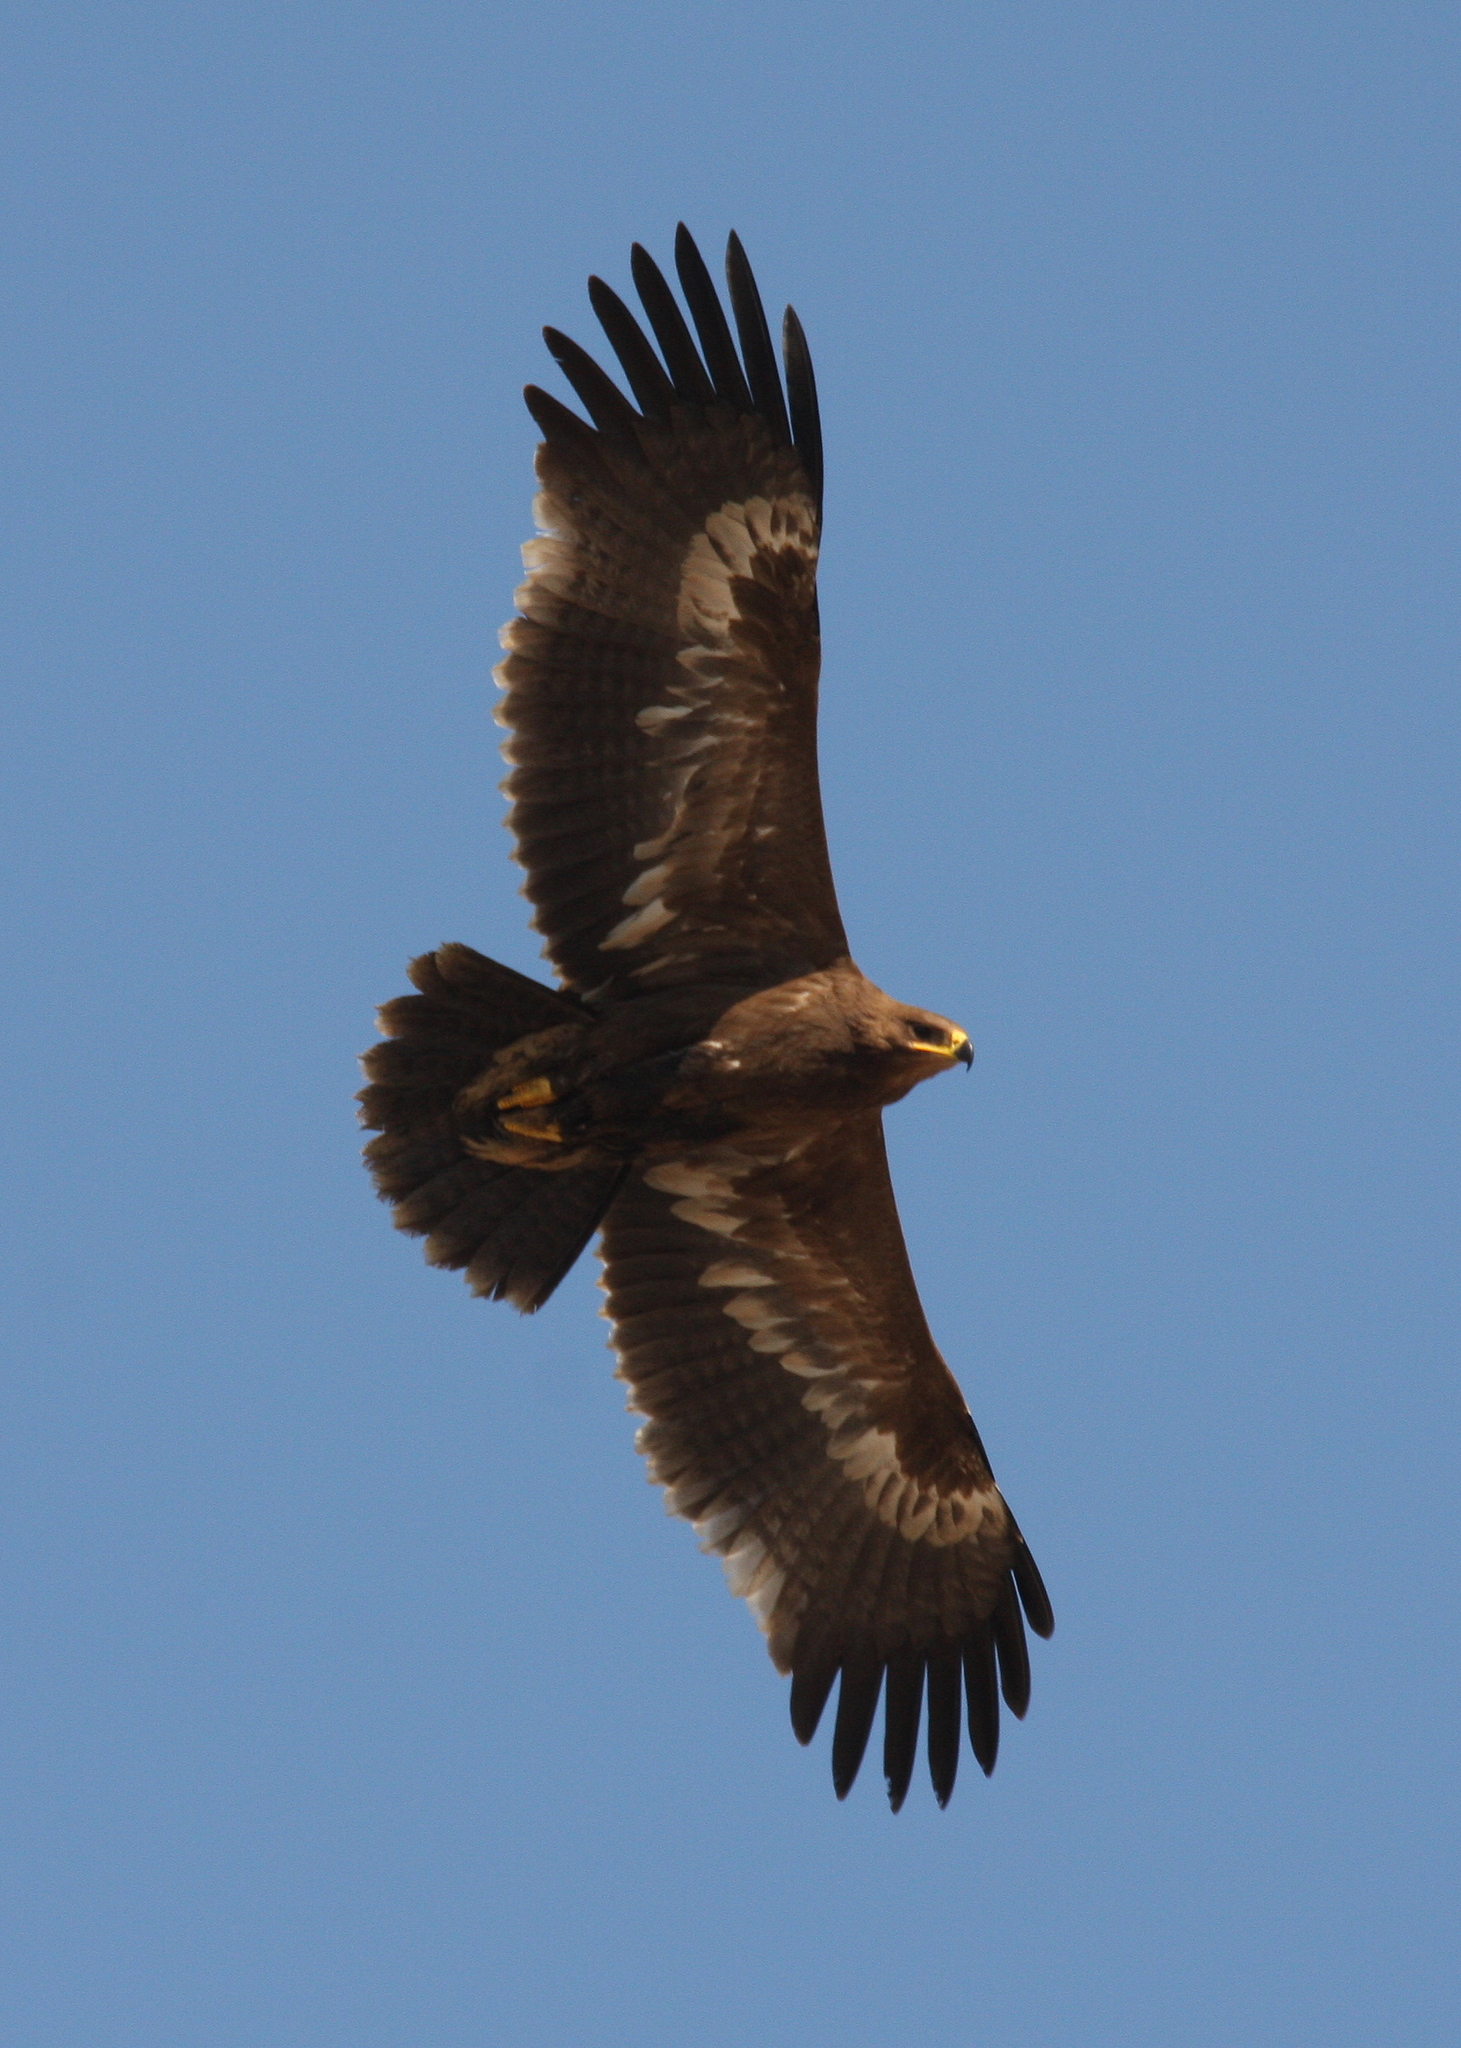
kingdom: Animalia
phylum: Chordata
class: Aves
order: Accipitriformes
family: Accipitridae
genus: Aquila
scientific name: Aquila nipalensis
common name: Steppe eagle
